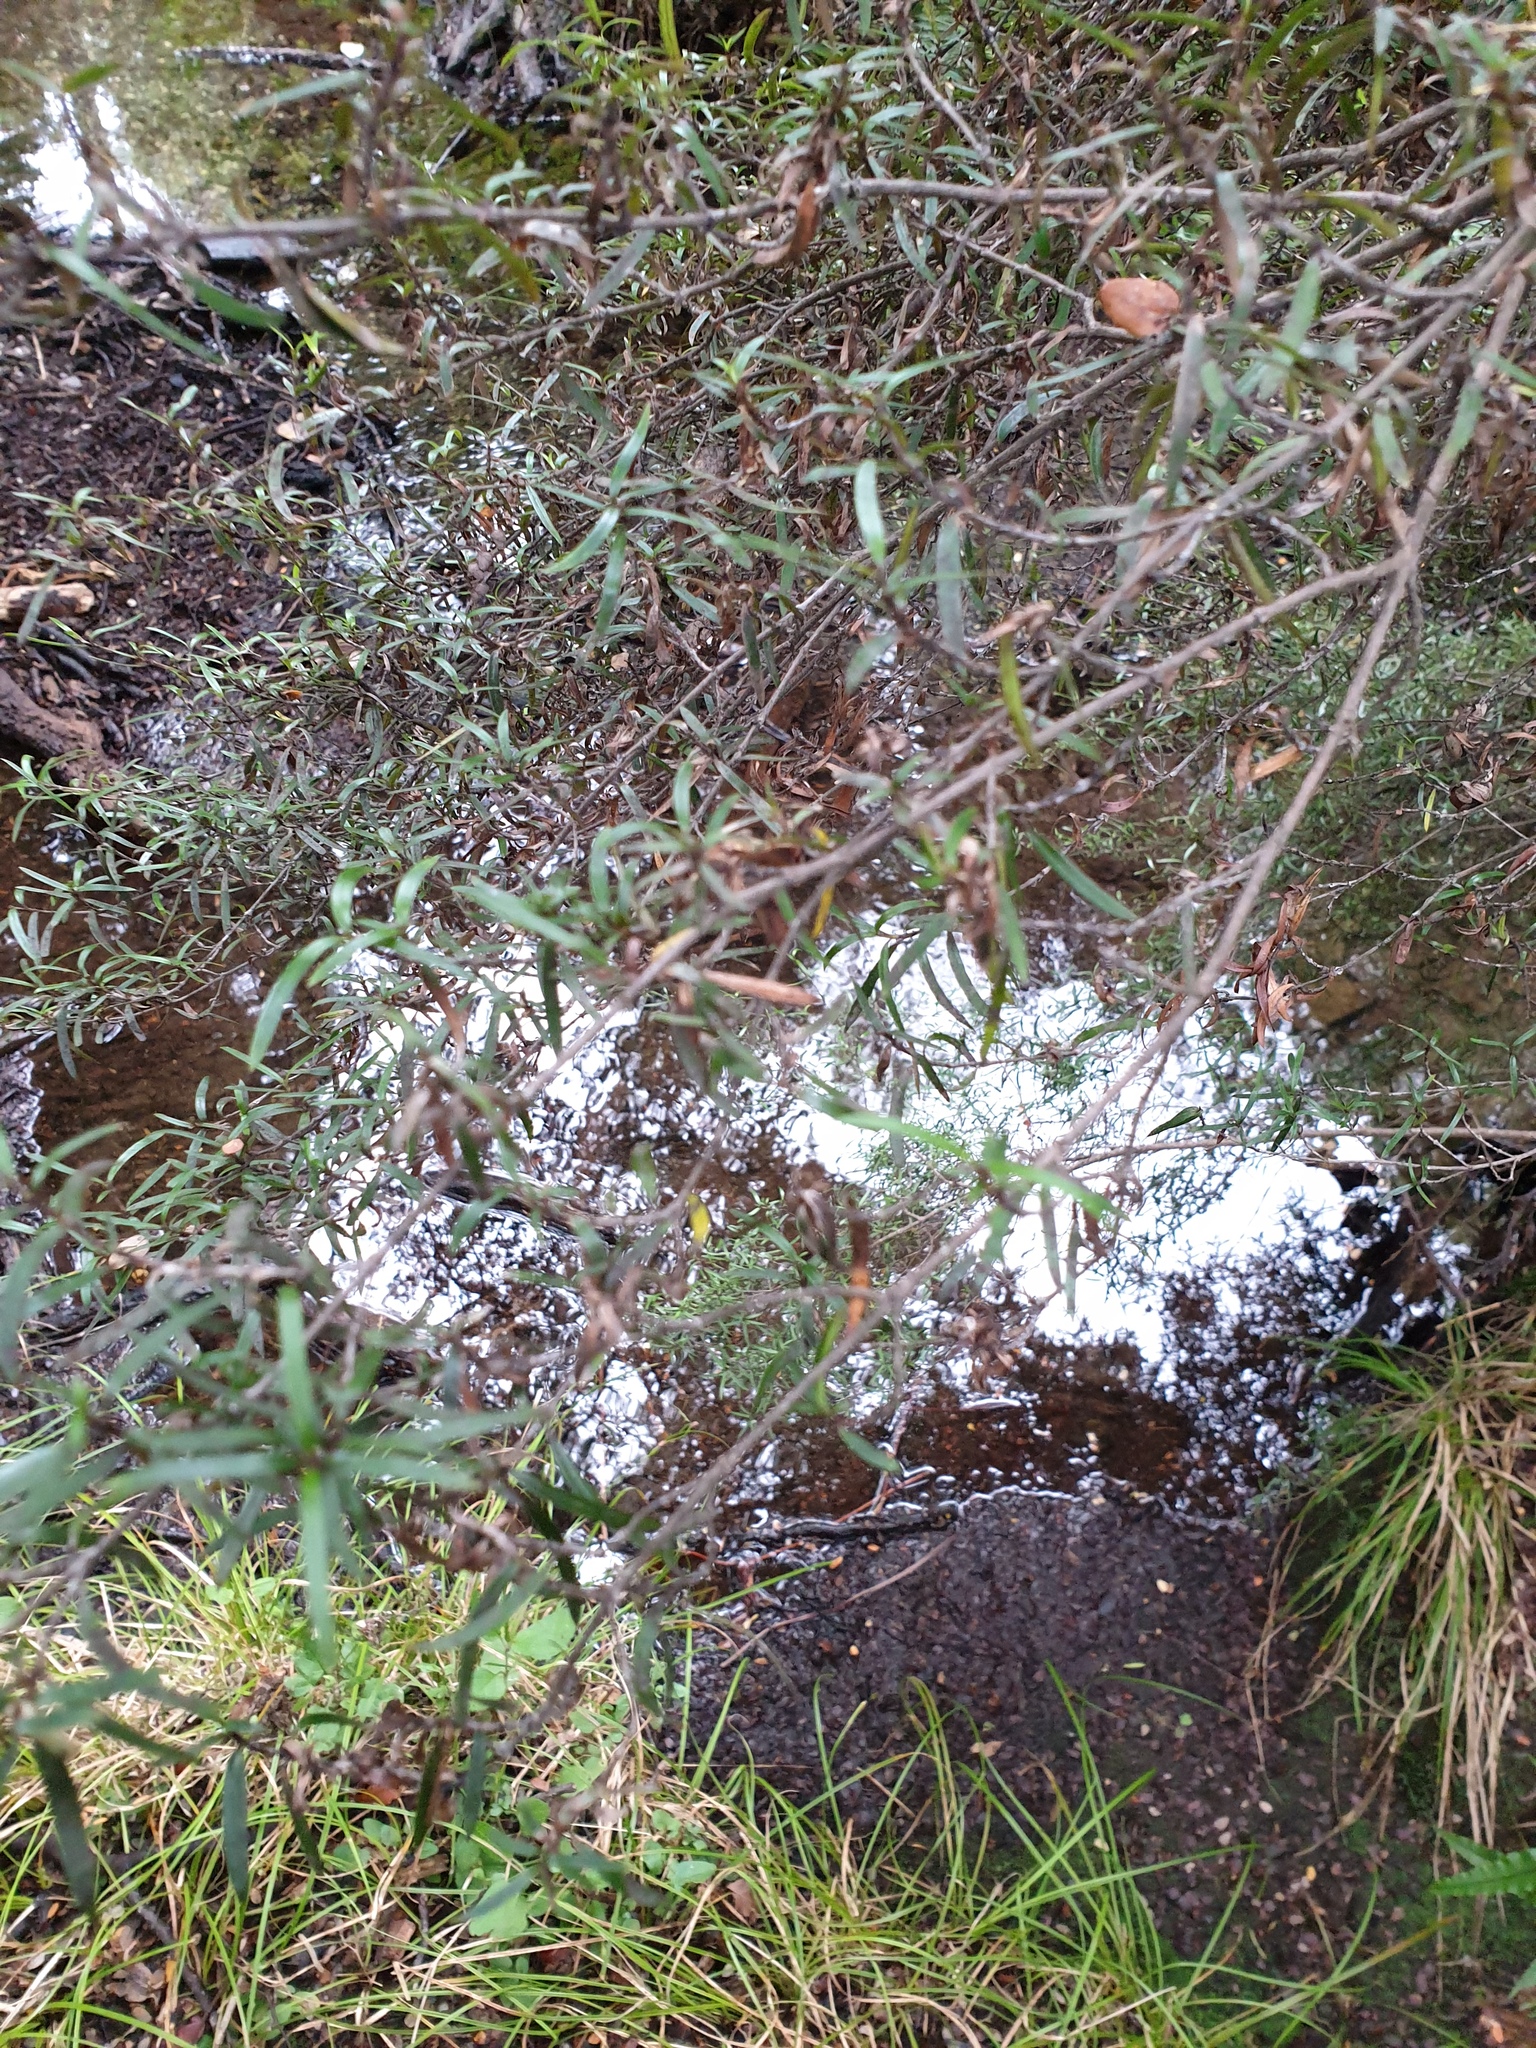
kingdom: Plantae
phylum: Tracheophyta
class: Magnoliopsida
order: Gentianales
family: Rubiaceae
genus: Coprosma
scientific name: Coprosma linariifolia
